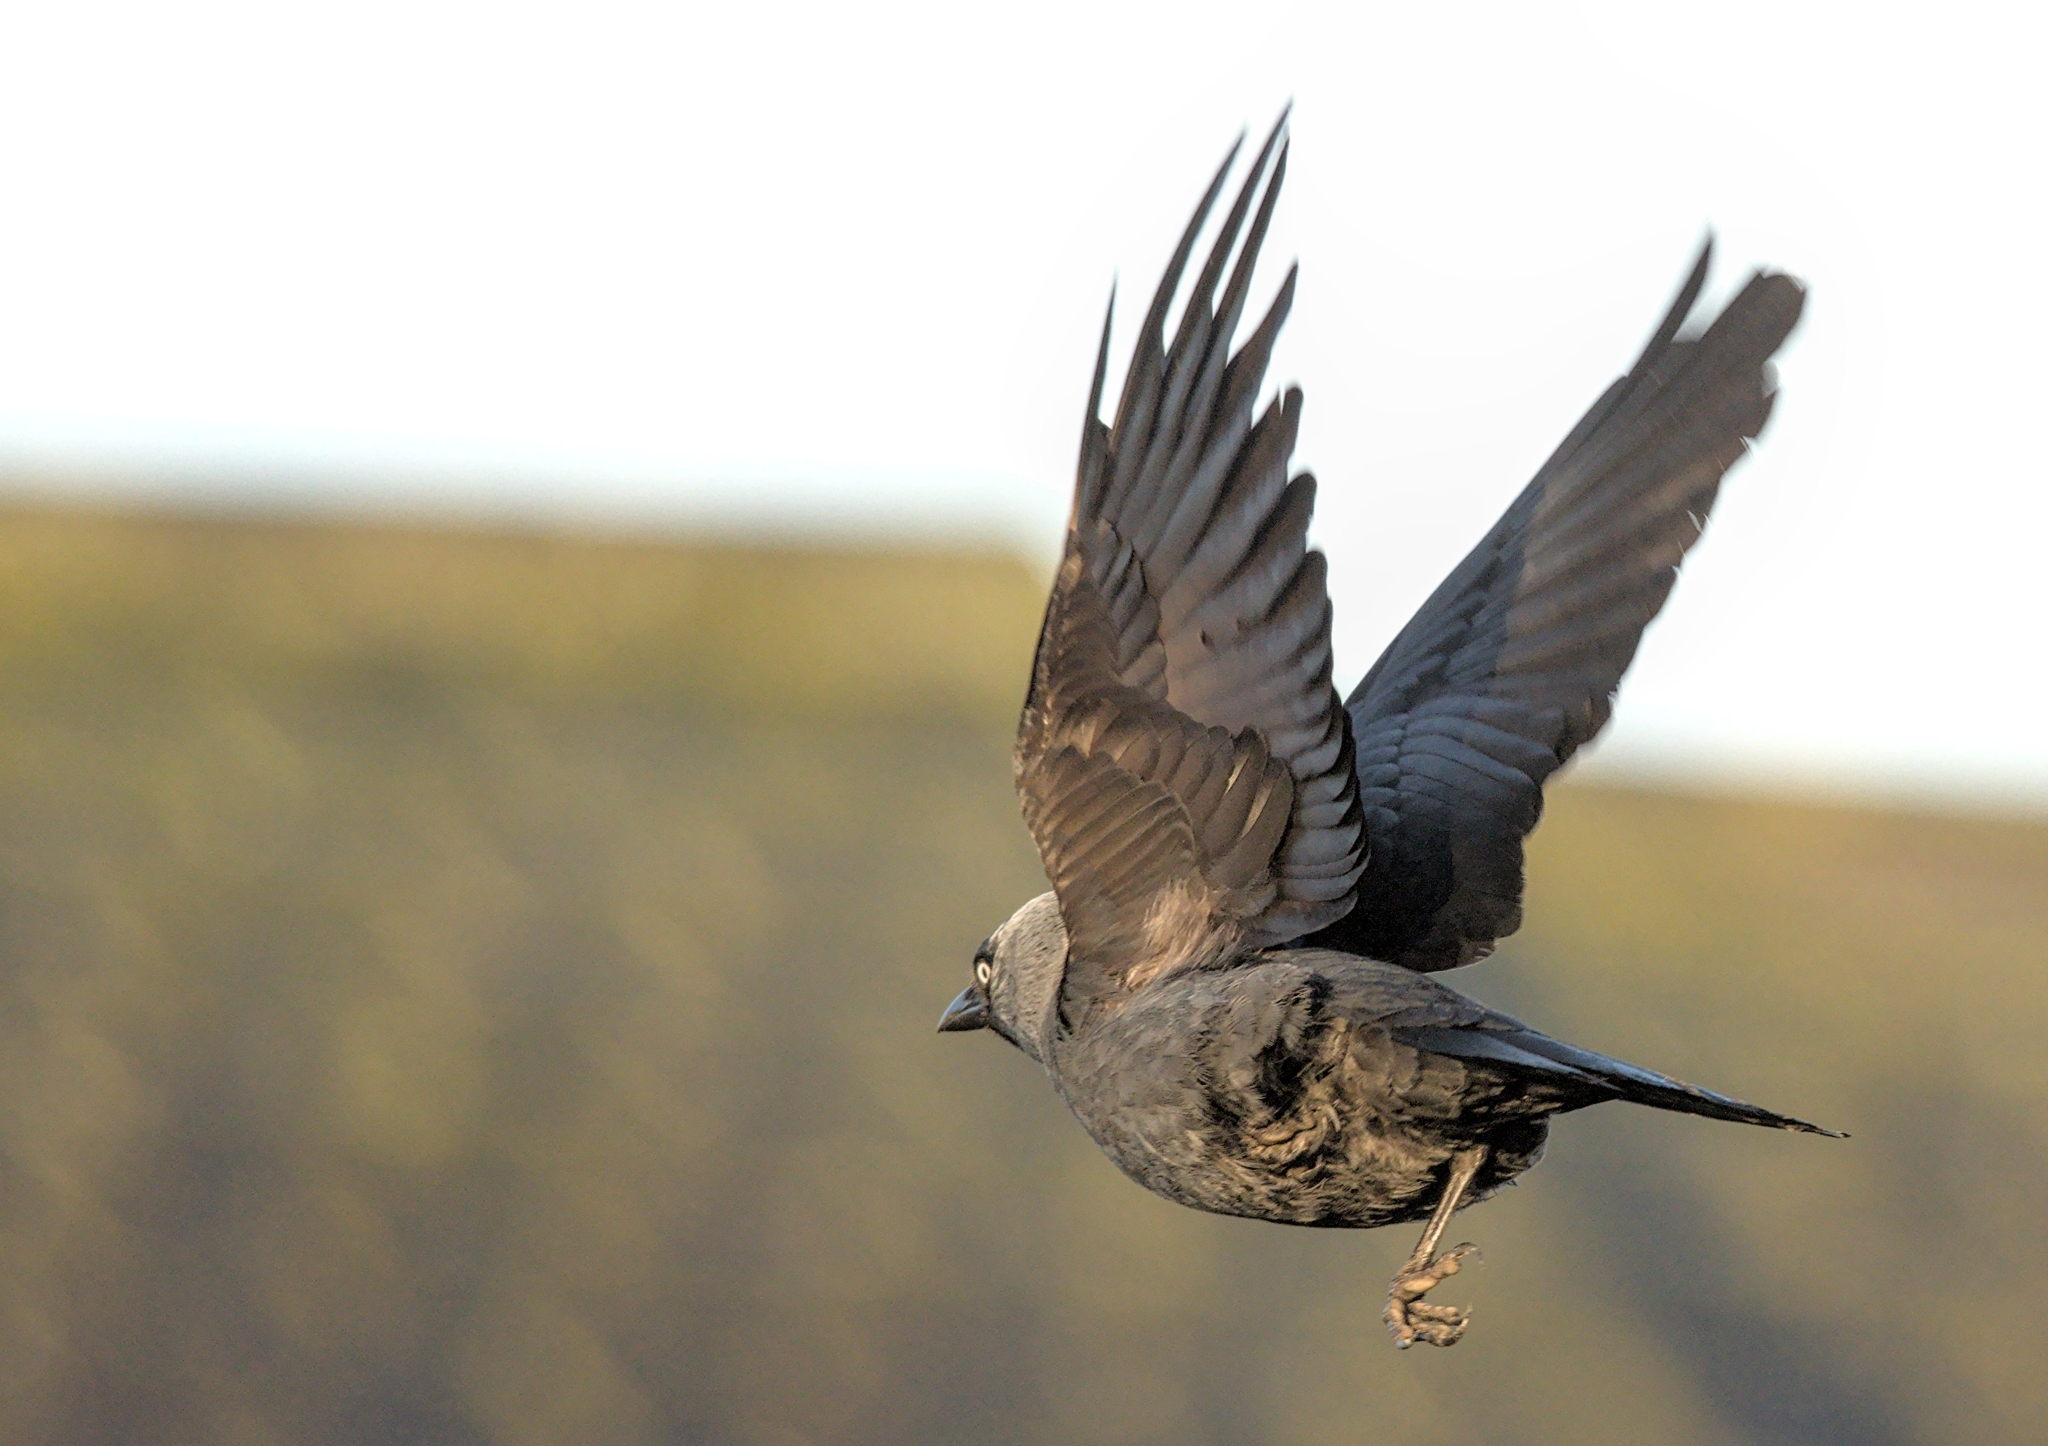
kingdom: Animalia
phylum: Chordata
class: Aves
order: Passeriformes
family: Corvidae
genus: Coloeus
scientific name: Coloeus monedula
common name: Western jackdaw
